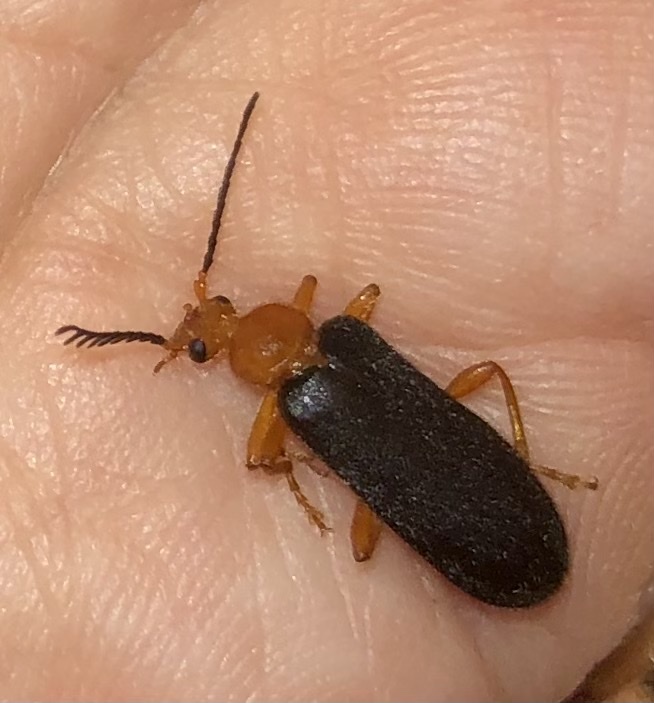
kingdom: Animalia
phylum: Arthropoda
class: Insecta
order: Coleoptera
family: Pyrochroidae
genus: Neopyrochroa
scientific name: Neopyrochroa flabellata
